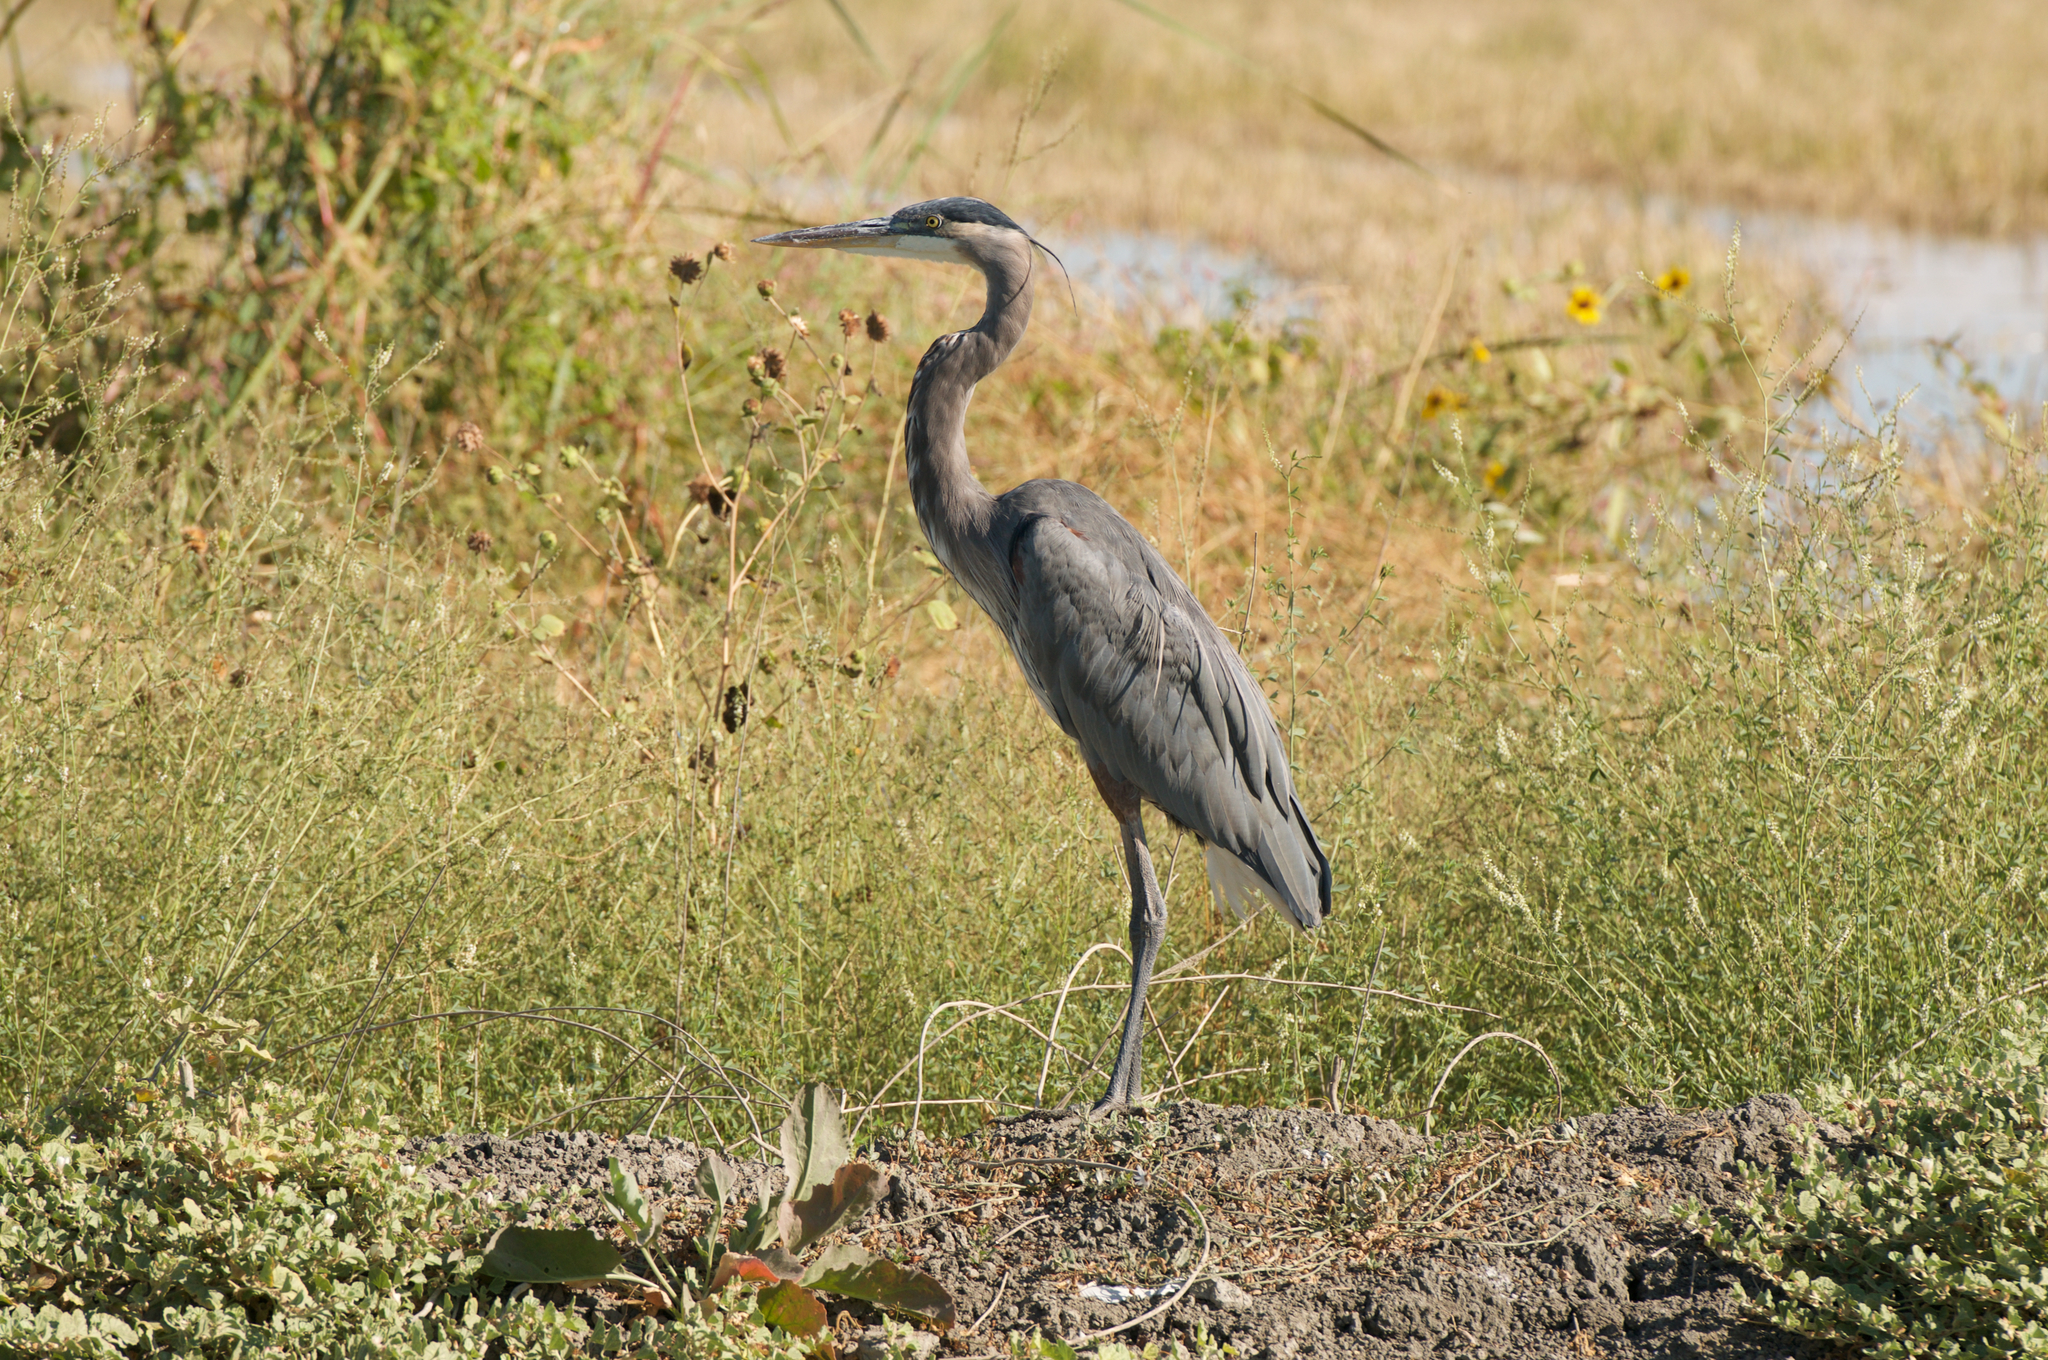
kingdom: Animalia
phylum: Chordata
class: Aves
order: Pelecaniformes
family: Ardeidae
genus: Ardea
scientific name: Ardea herodias
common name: Great blue heron
